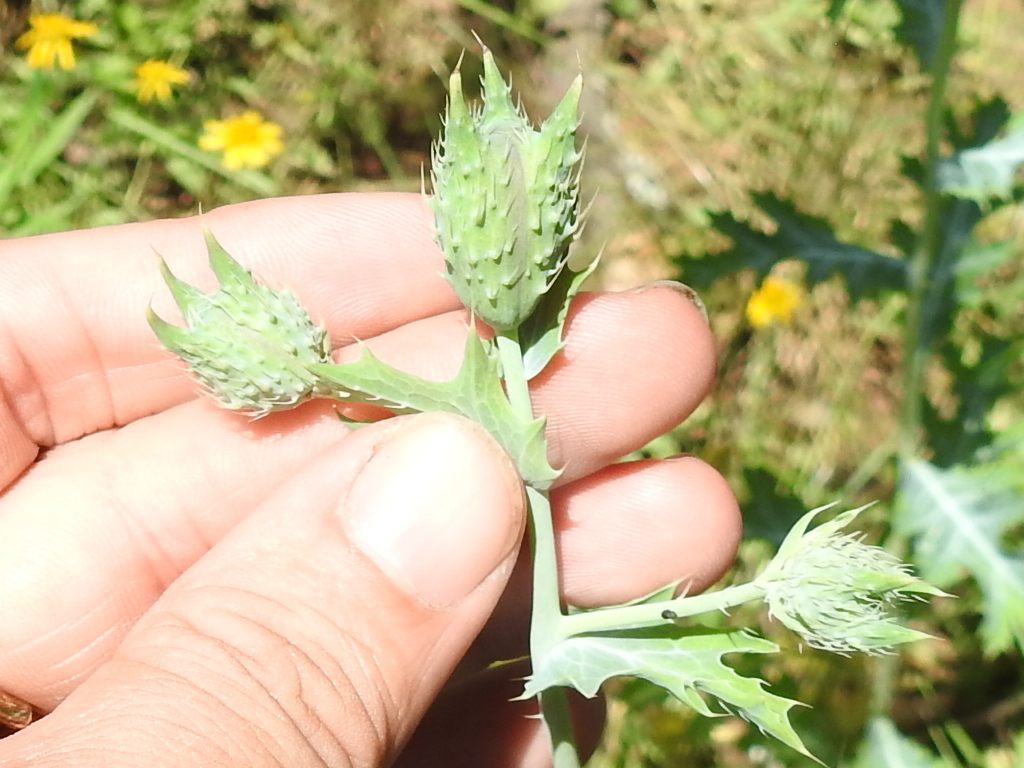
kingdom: Plantae
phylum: Tracheophyta
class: Magnoliopsida
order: Ranunculales
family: Papaveraceae
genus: Argemone
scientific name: Argemone albiflora
